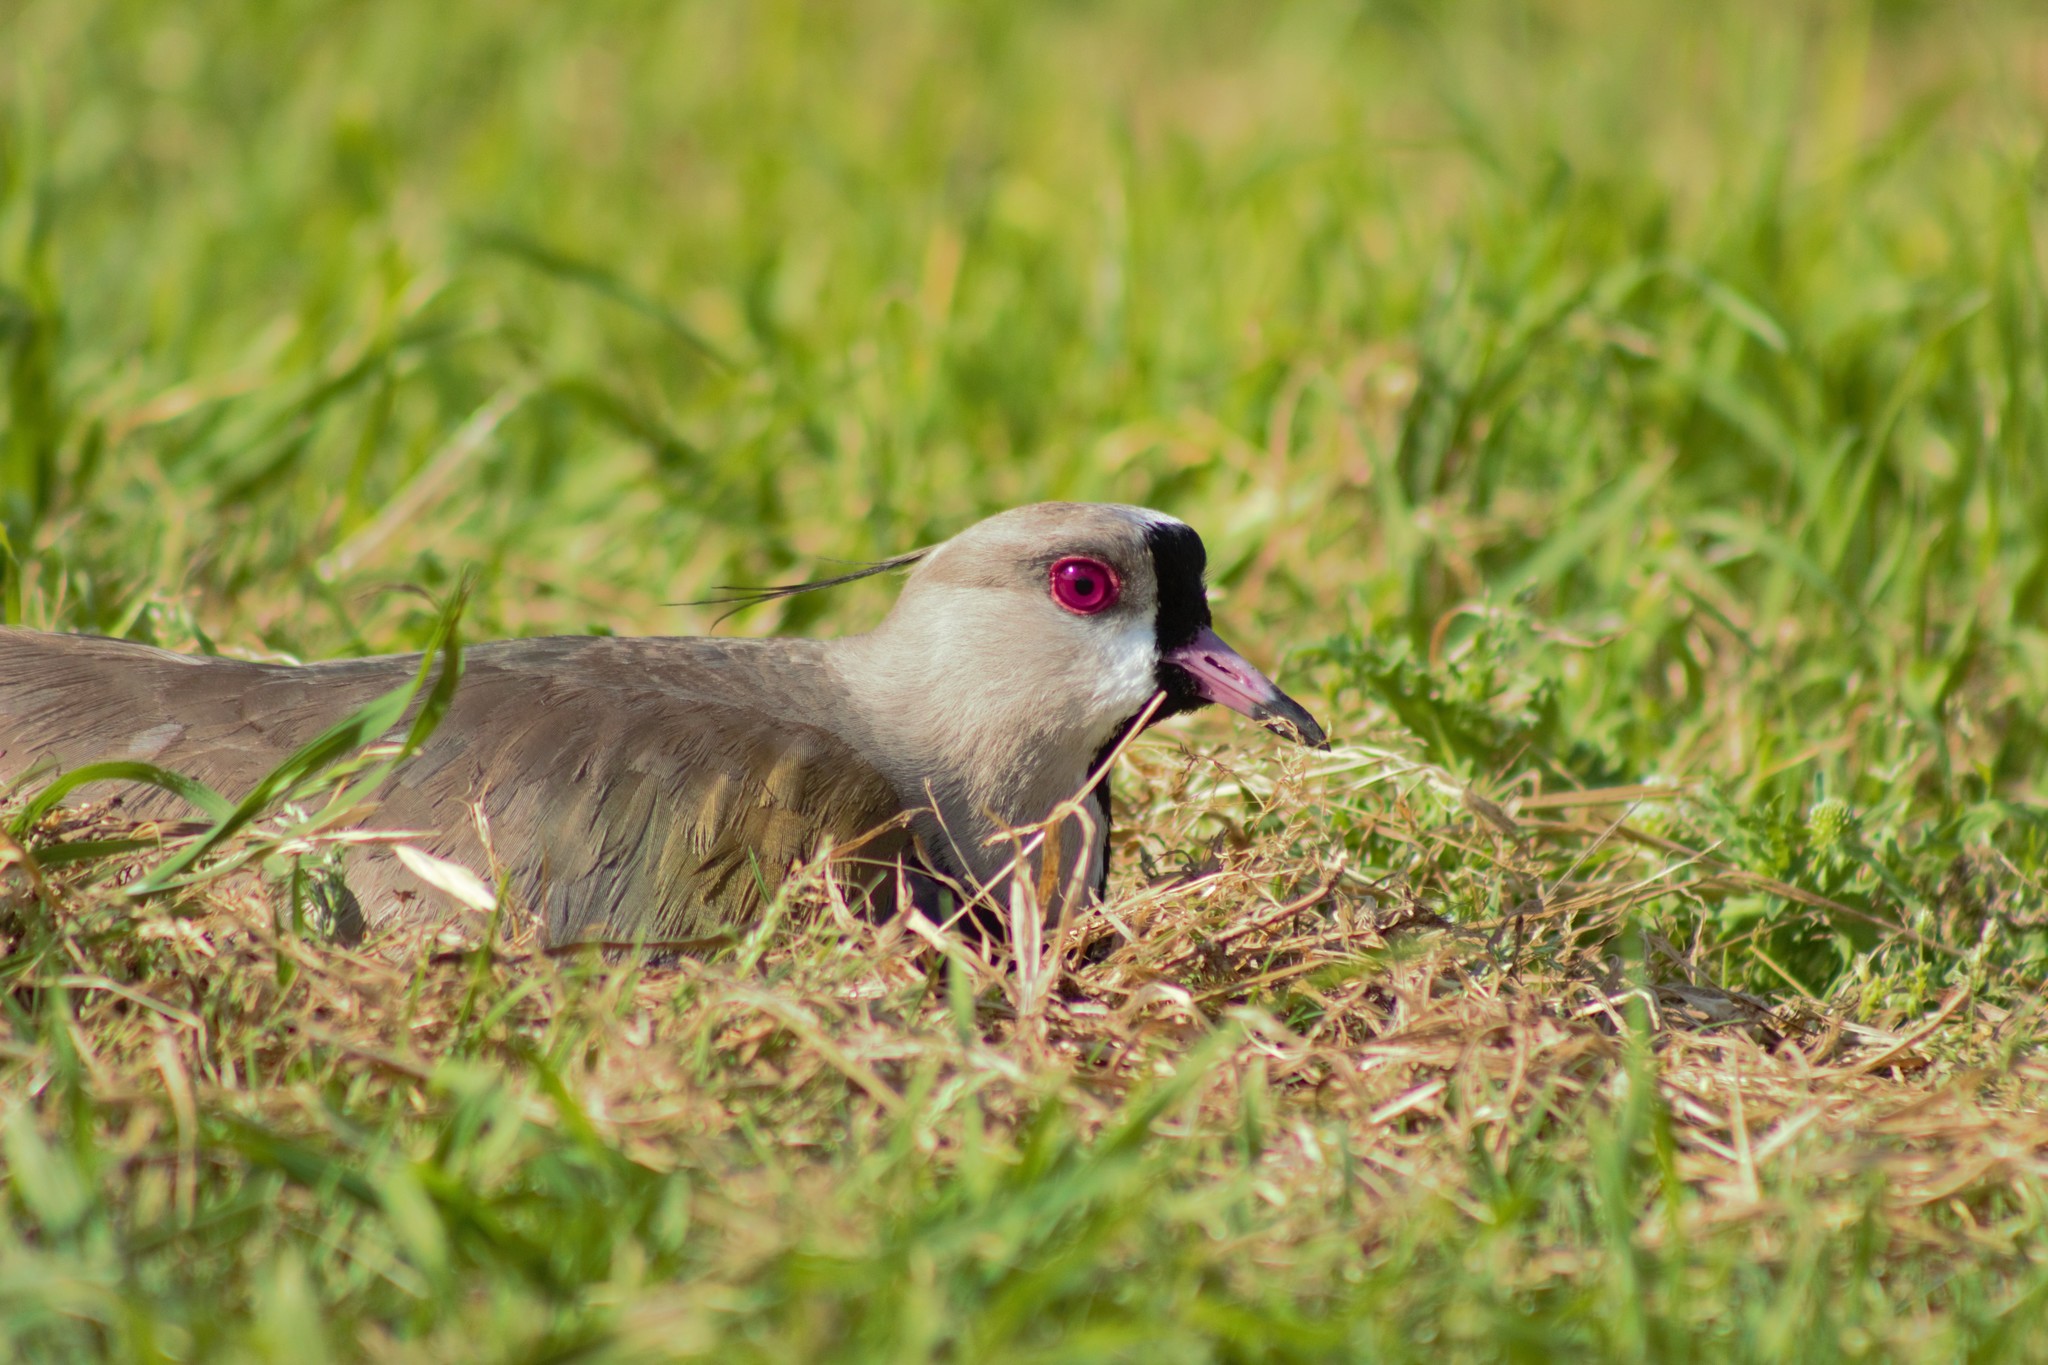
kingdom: Animalia
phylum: Chordata
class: Aves
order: Charadriiformes
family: Charadriidae
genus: Vanellus
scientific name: Vanellus chilensis
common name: Southern lapwing
